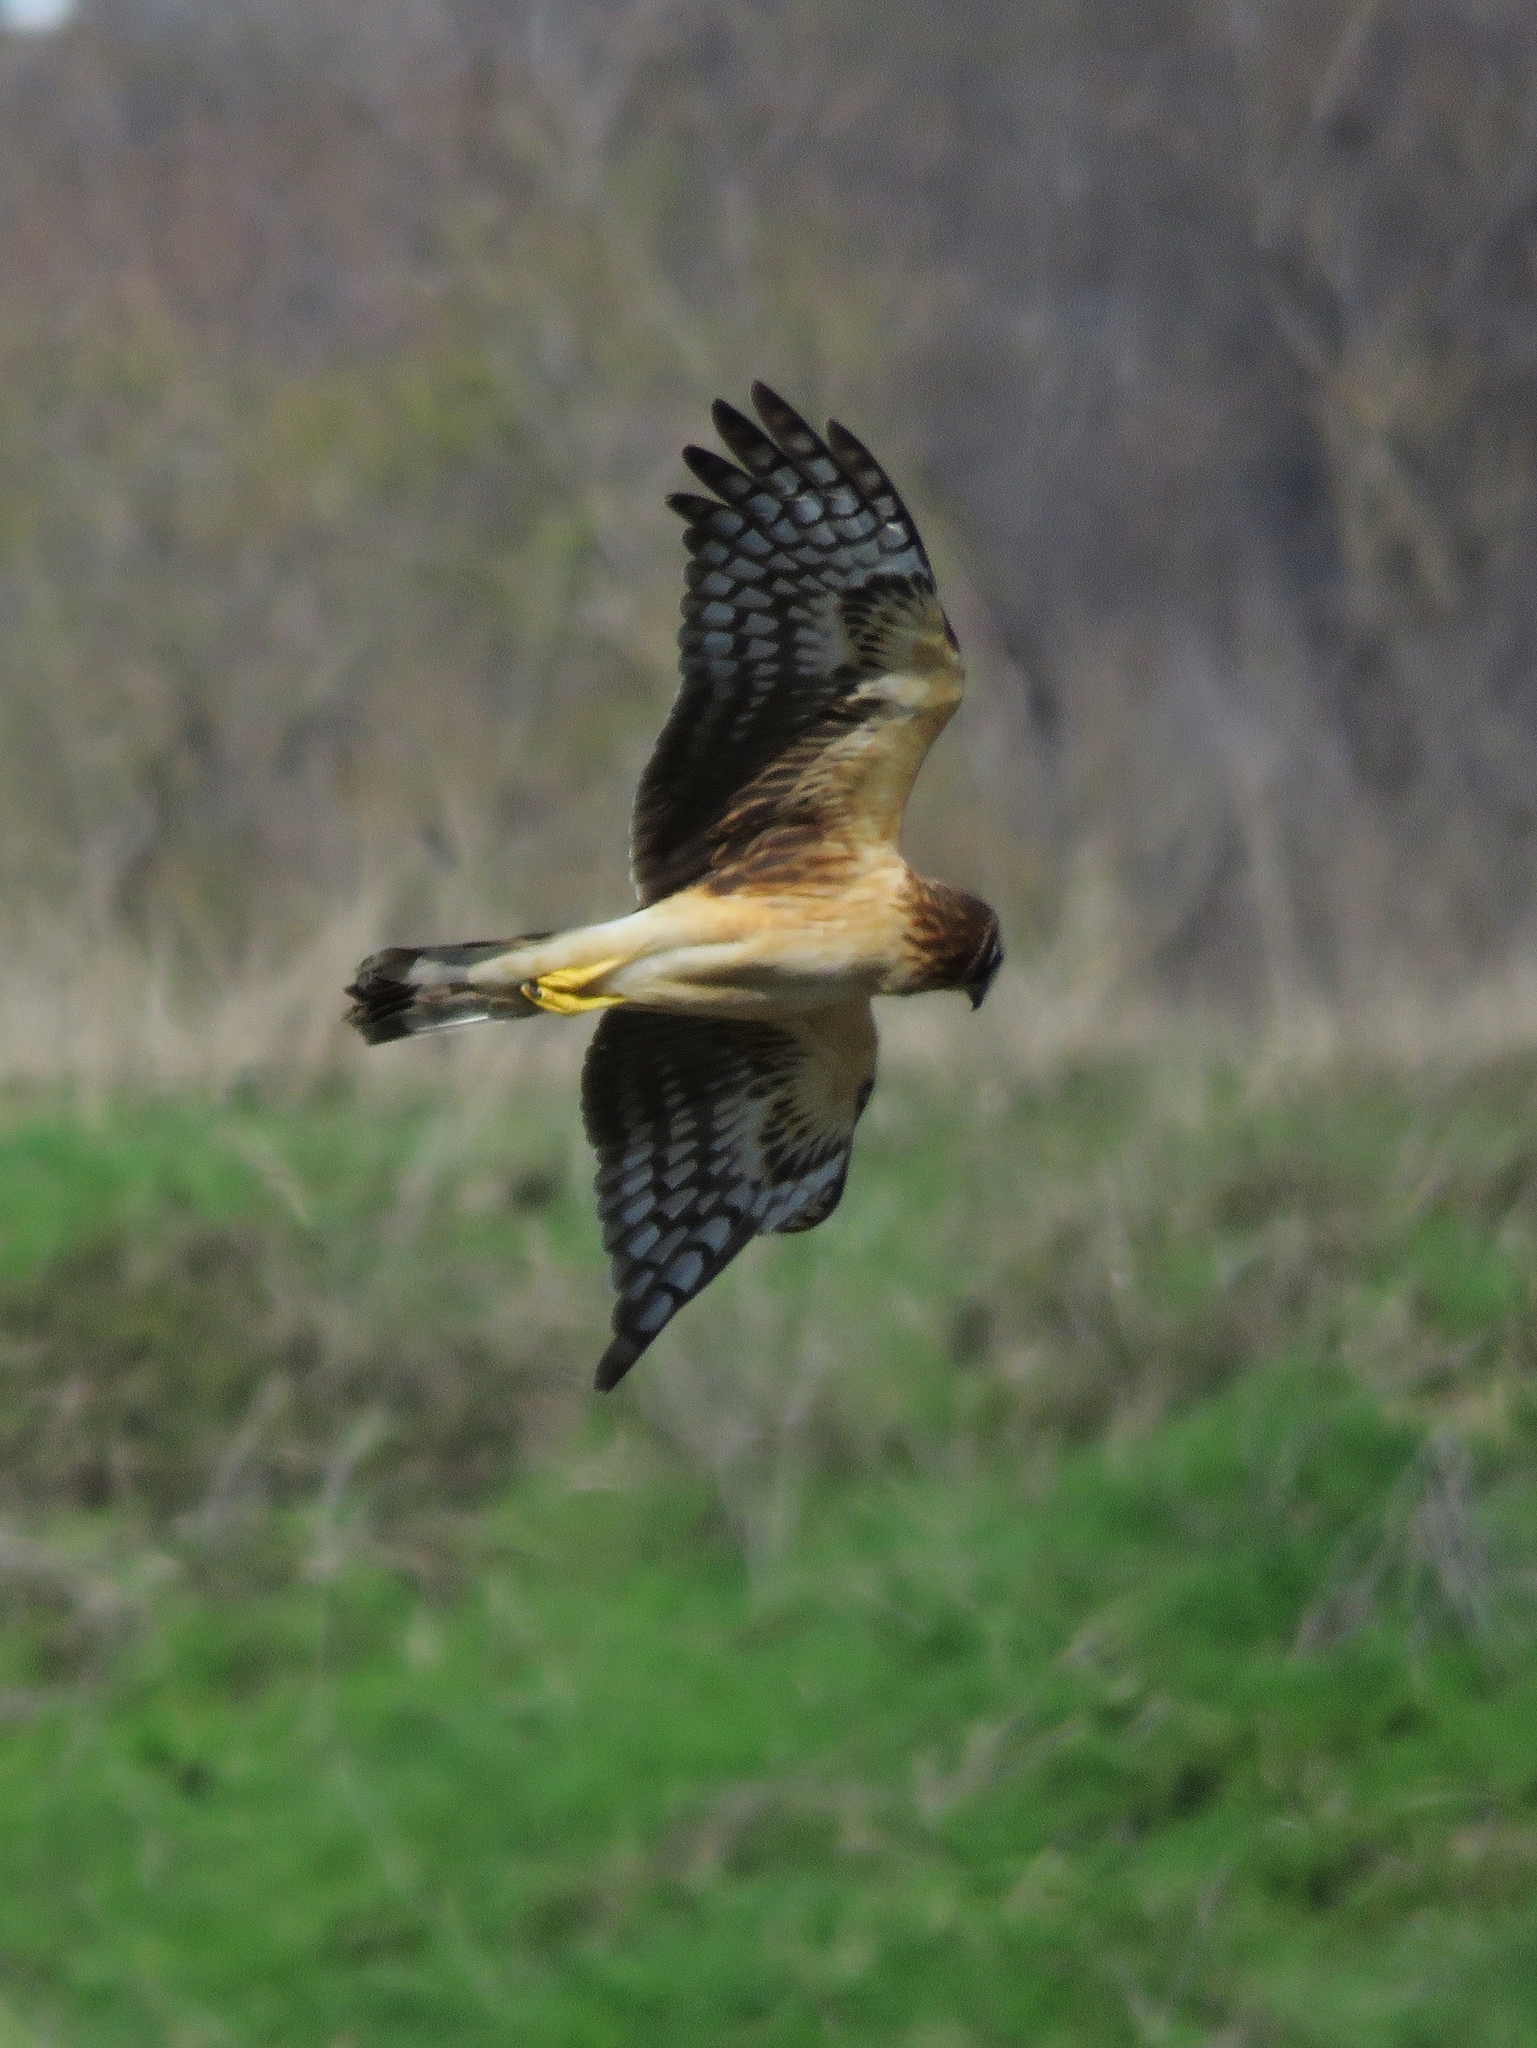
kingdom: Animalia
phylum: Chordata
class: Aves
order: Accipitriformes
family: Accipitridae
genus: Circus
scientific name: Circus cyaneus
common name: Hen harrier
